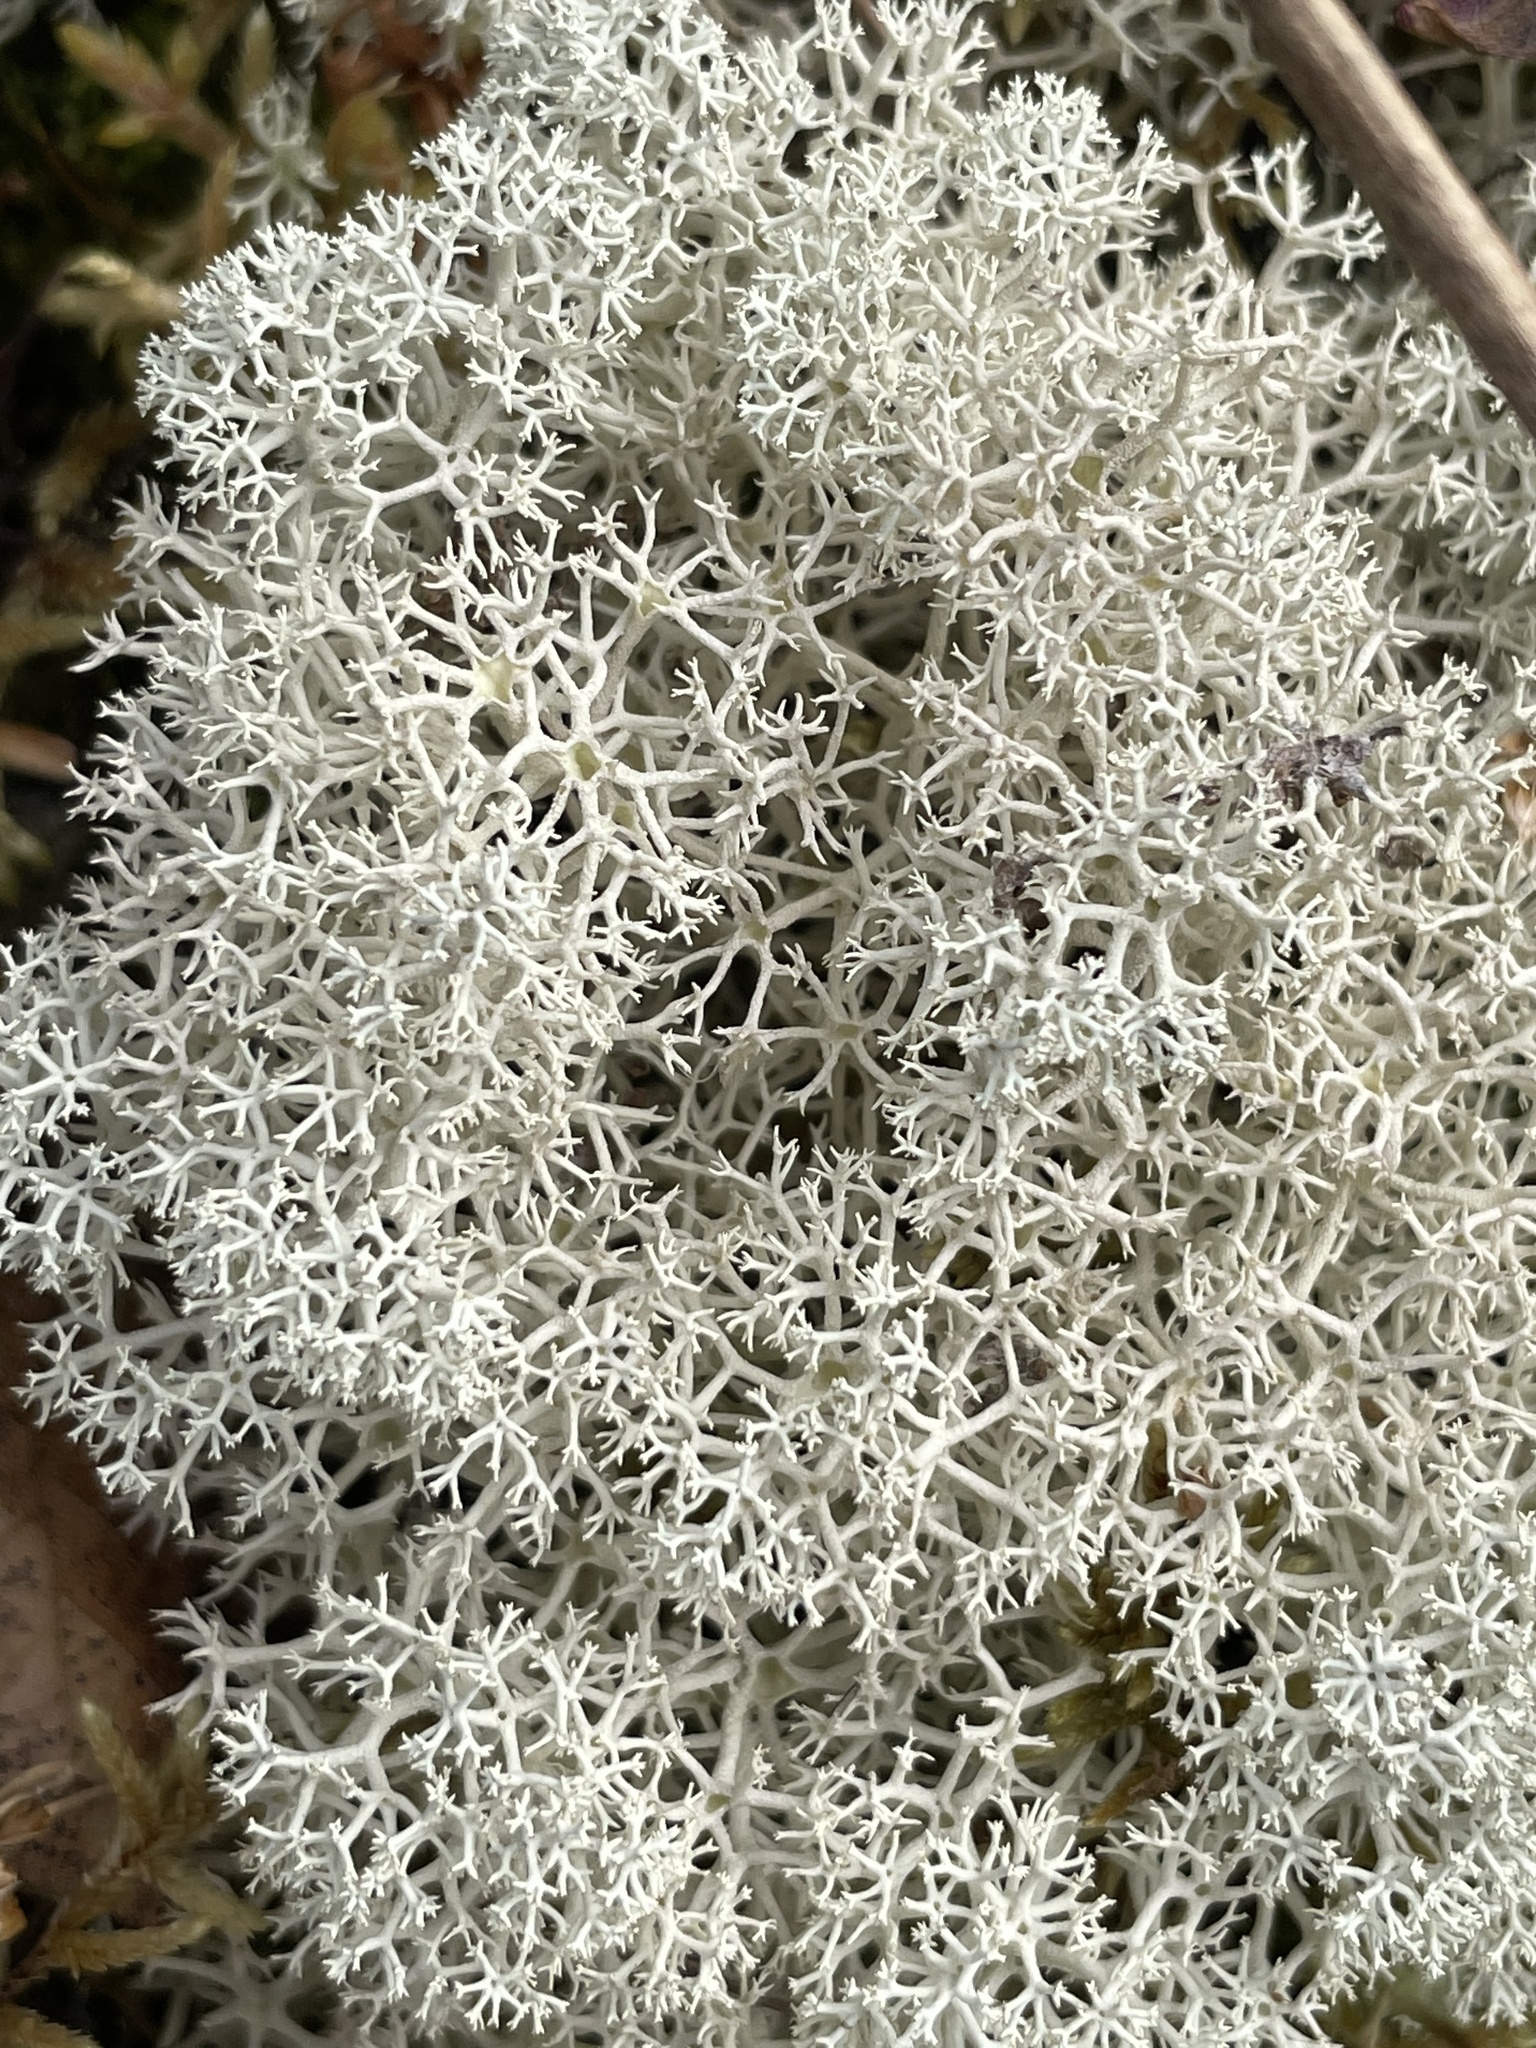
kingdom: Fungi
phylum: Ascomycota
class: Lecanoromycetes
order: Lecanorales
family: Cladoniaceae
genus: Cladonia
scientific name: Cladonia stellaris
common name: Star-tipped reindeer lichen
